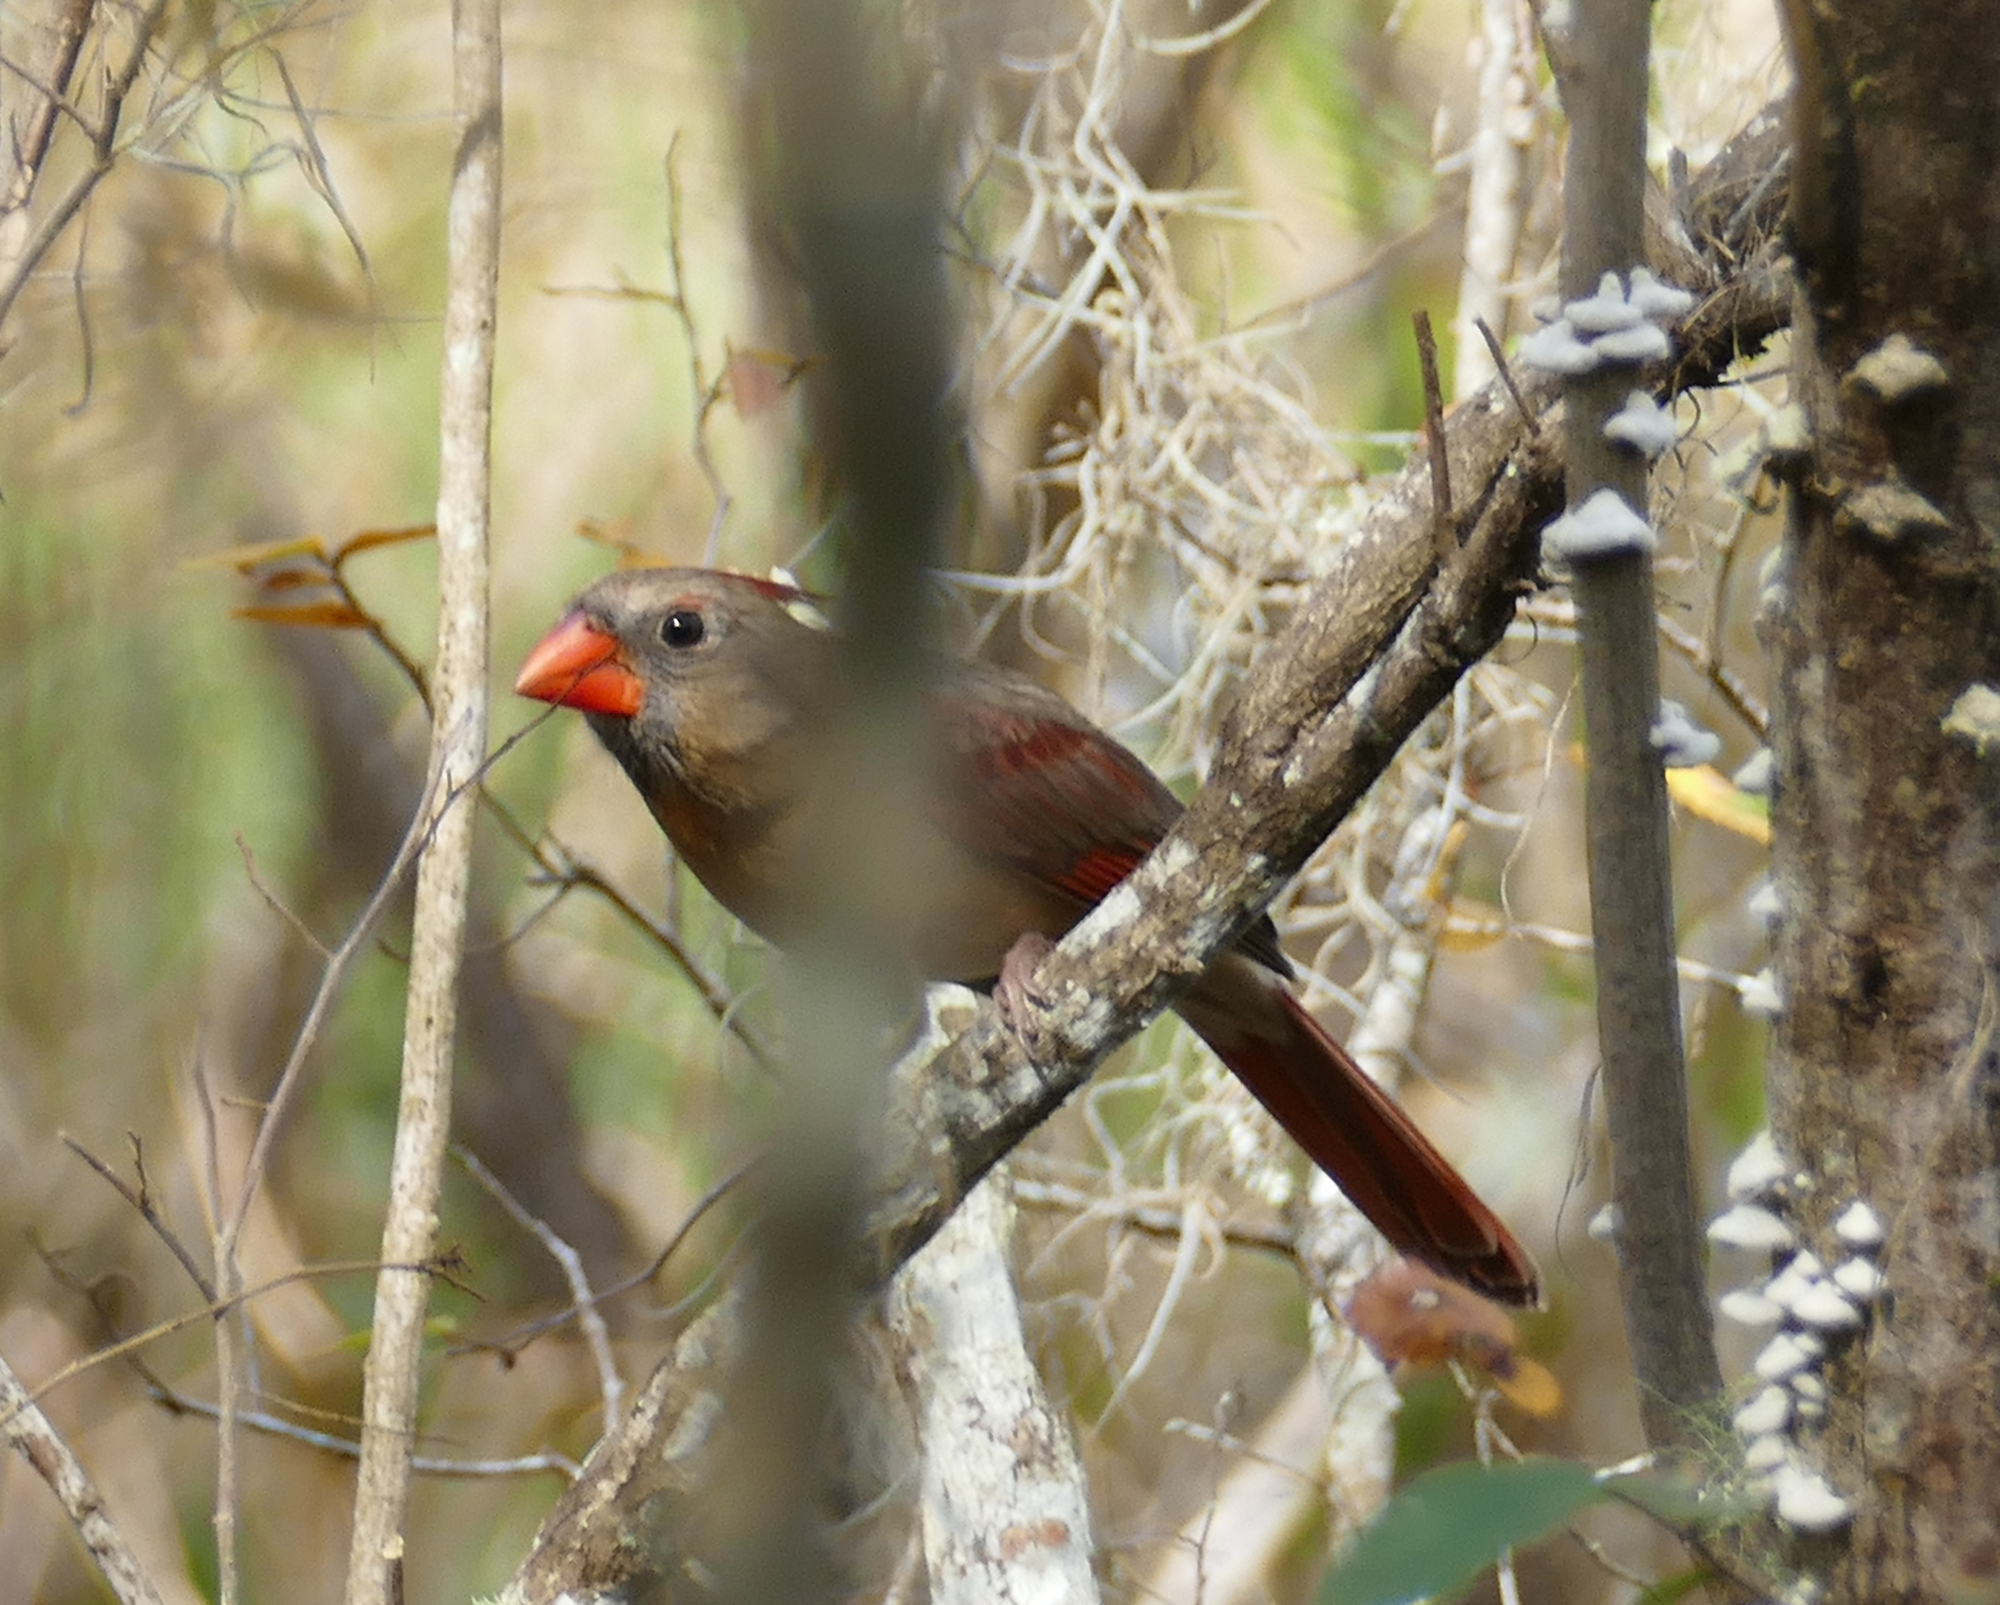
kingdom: Animalia
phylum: Chordata
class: Aves
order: Passeriformes
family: Cardinalidae
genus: Cardinalis
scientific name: Cardinalis cardinalis
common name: Northern cardinal
